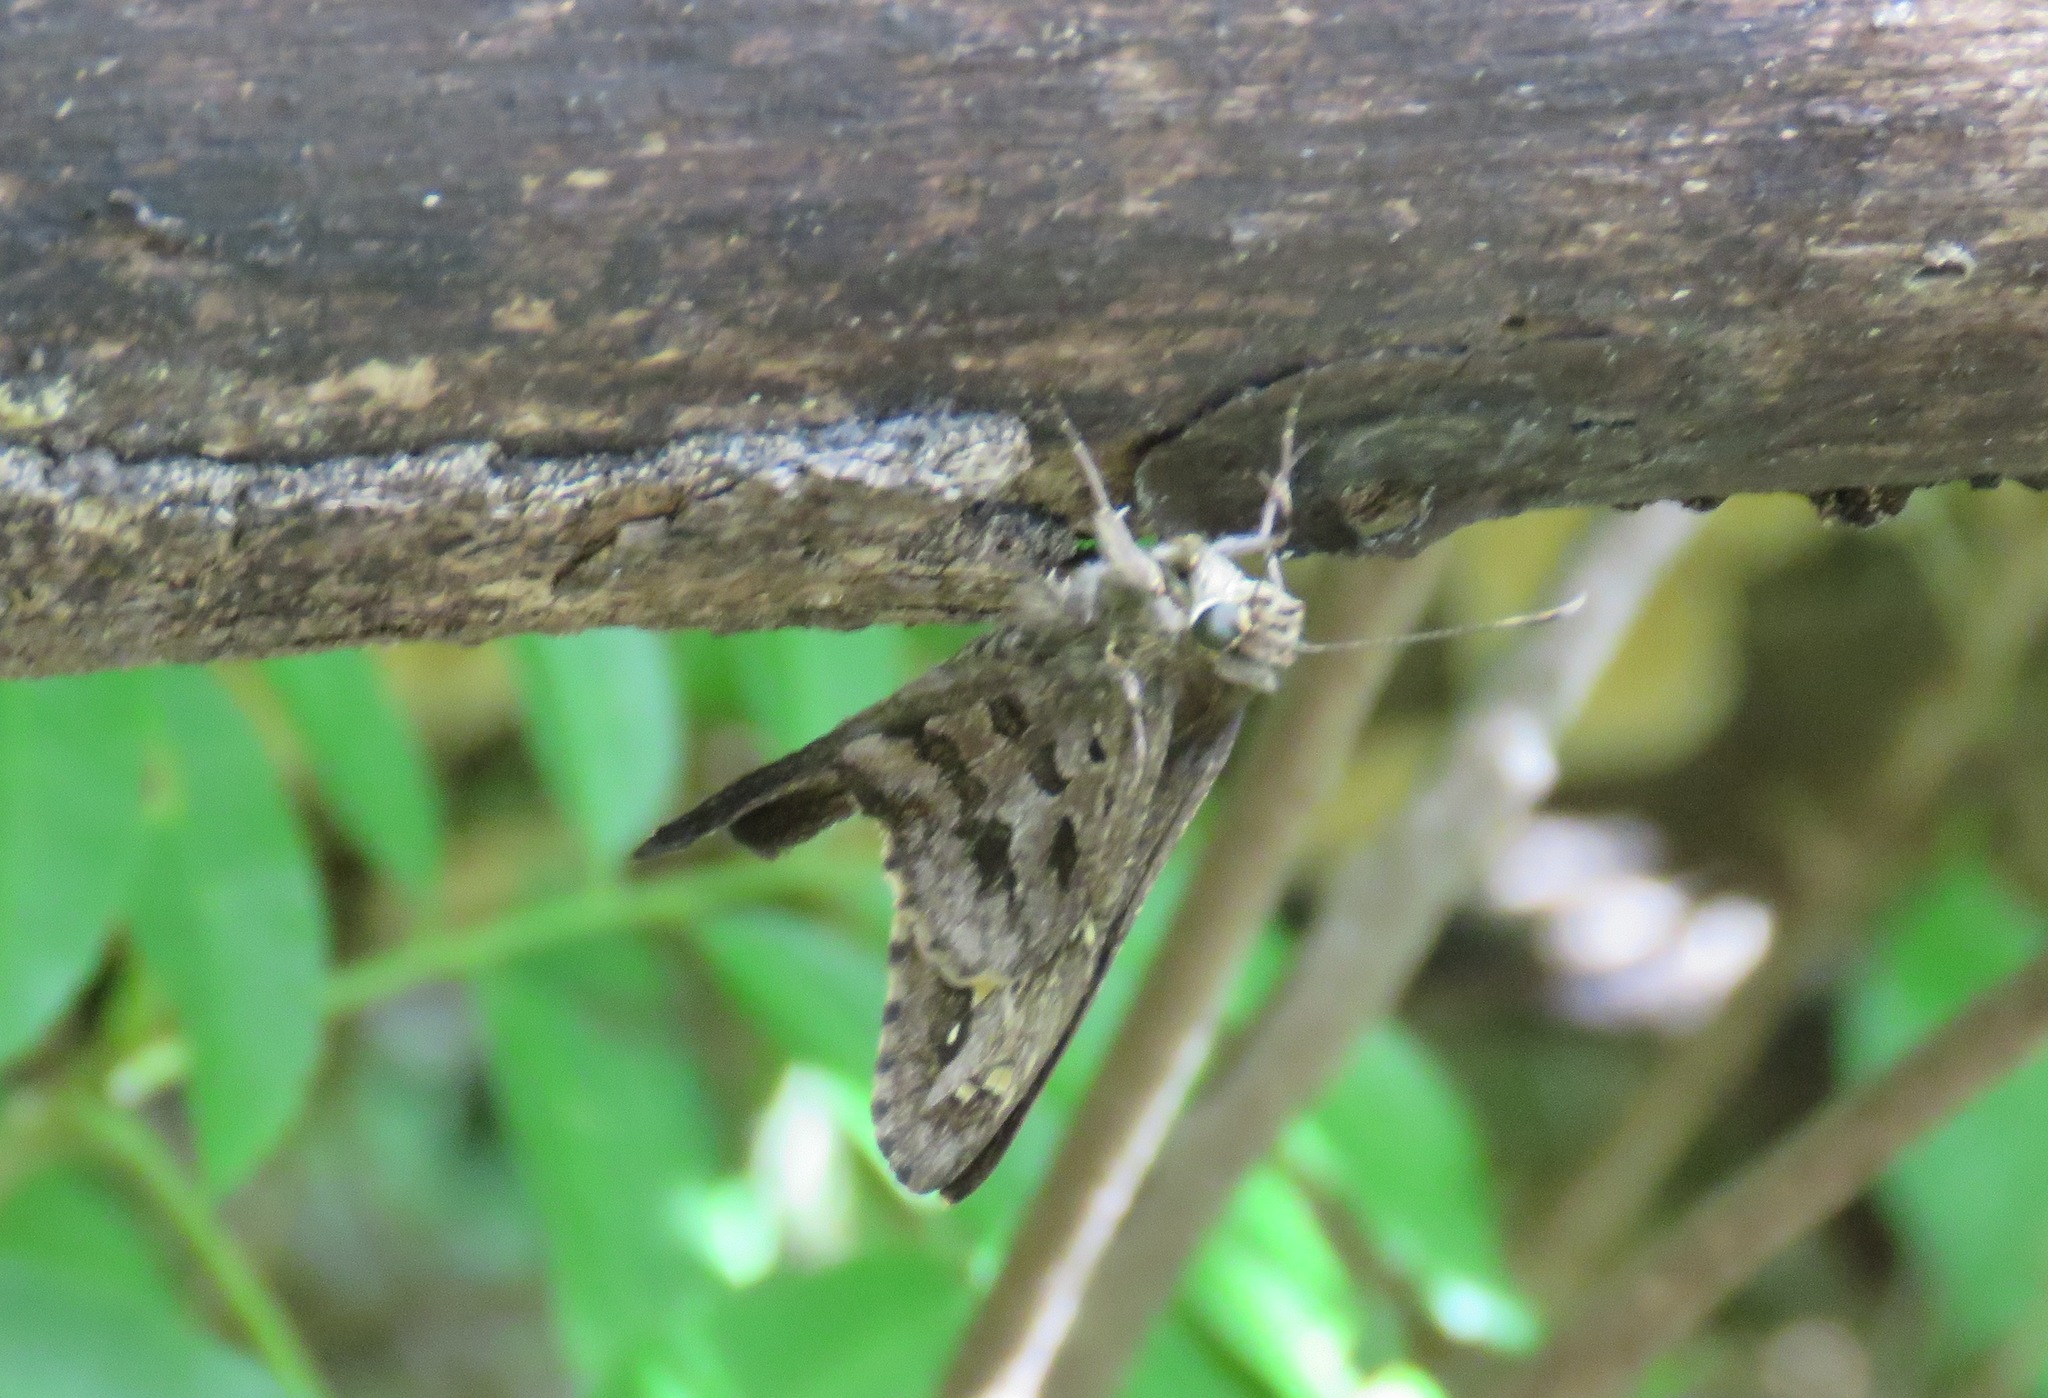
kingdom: Animalia
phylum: Arthropoda
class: Insecta
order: Lepidoptera
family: Hesperiidae
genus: Thorybes
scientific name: Thorybes
